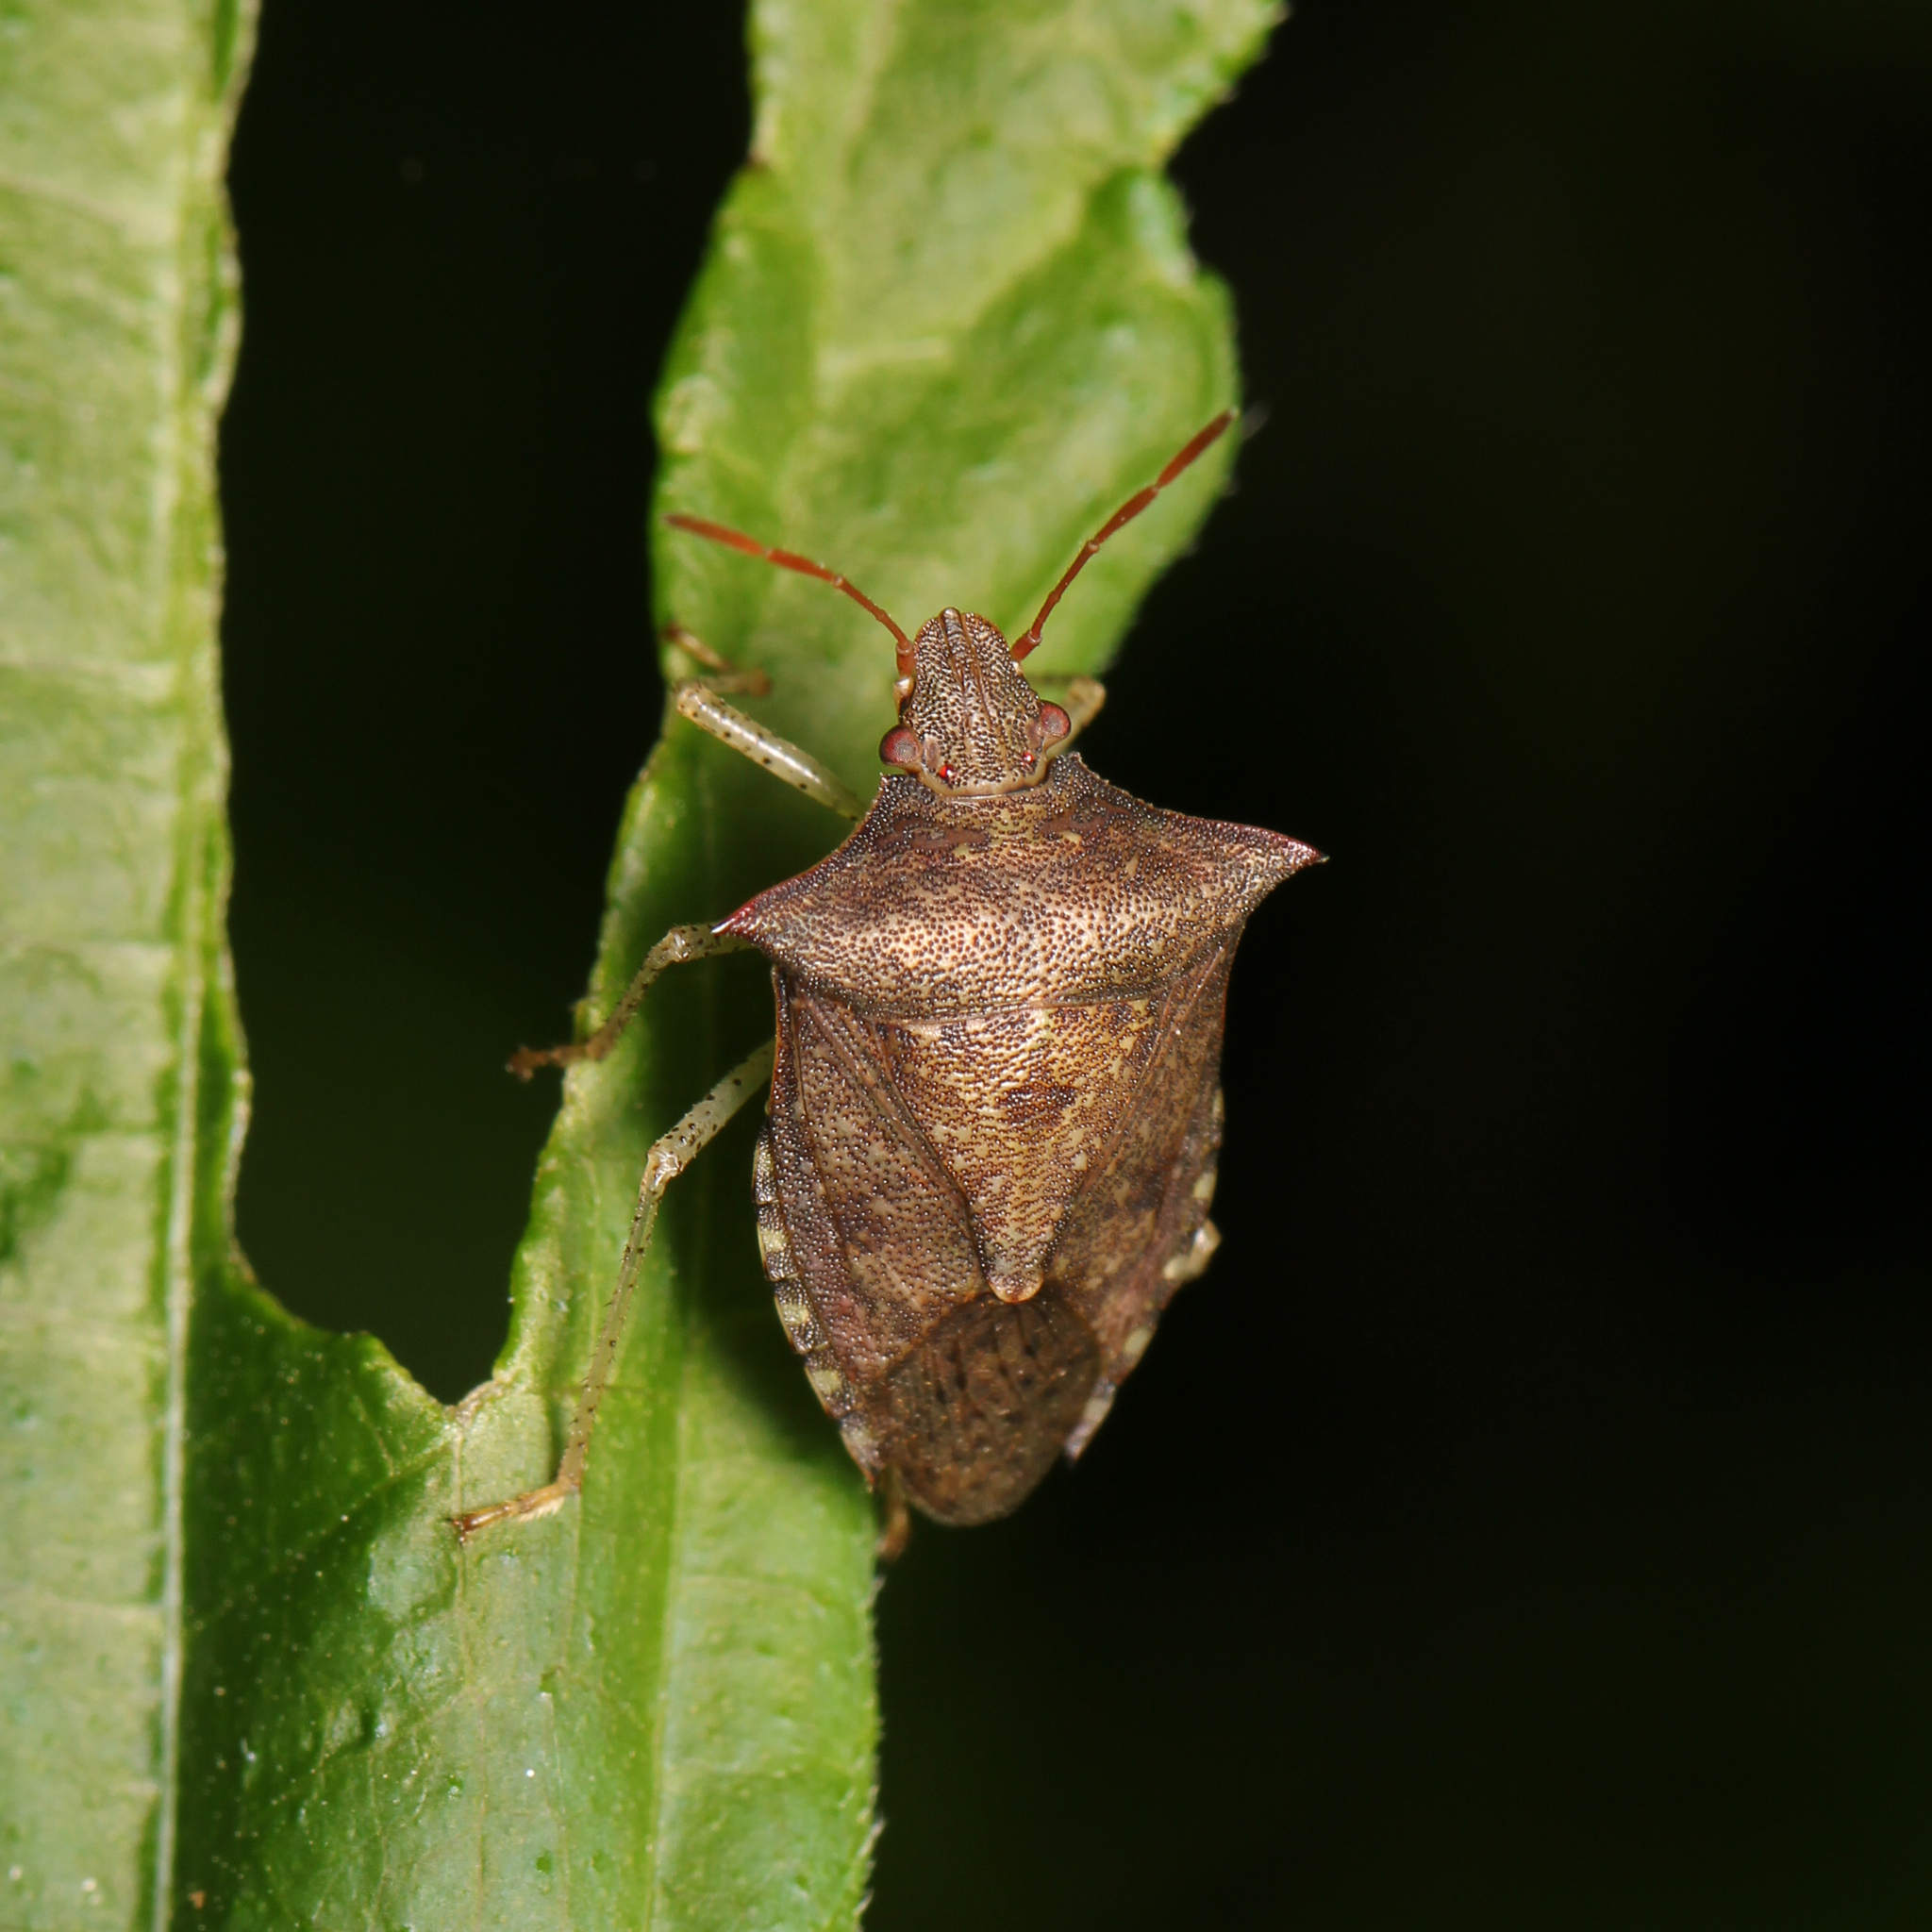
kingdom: Animalia
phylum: Arthropoda
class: Insecta
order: Hemiptera
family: Pentatomidae
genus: Euschistus
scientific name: Euschistus tristigmus
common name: Dusky stink bug
